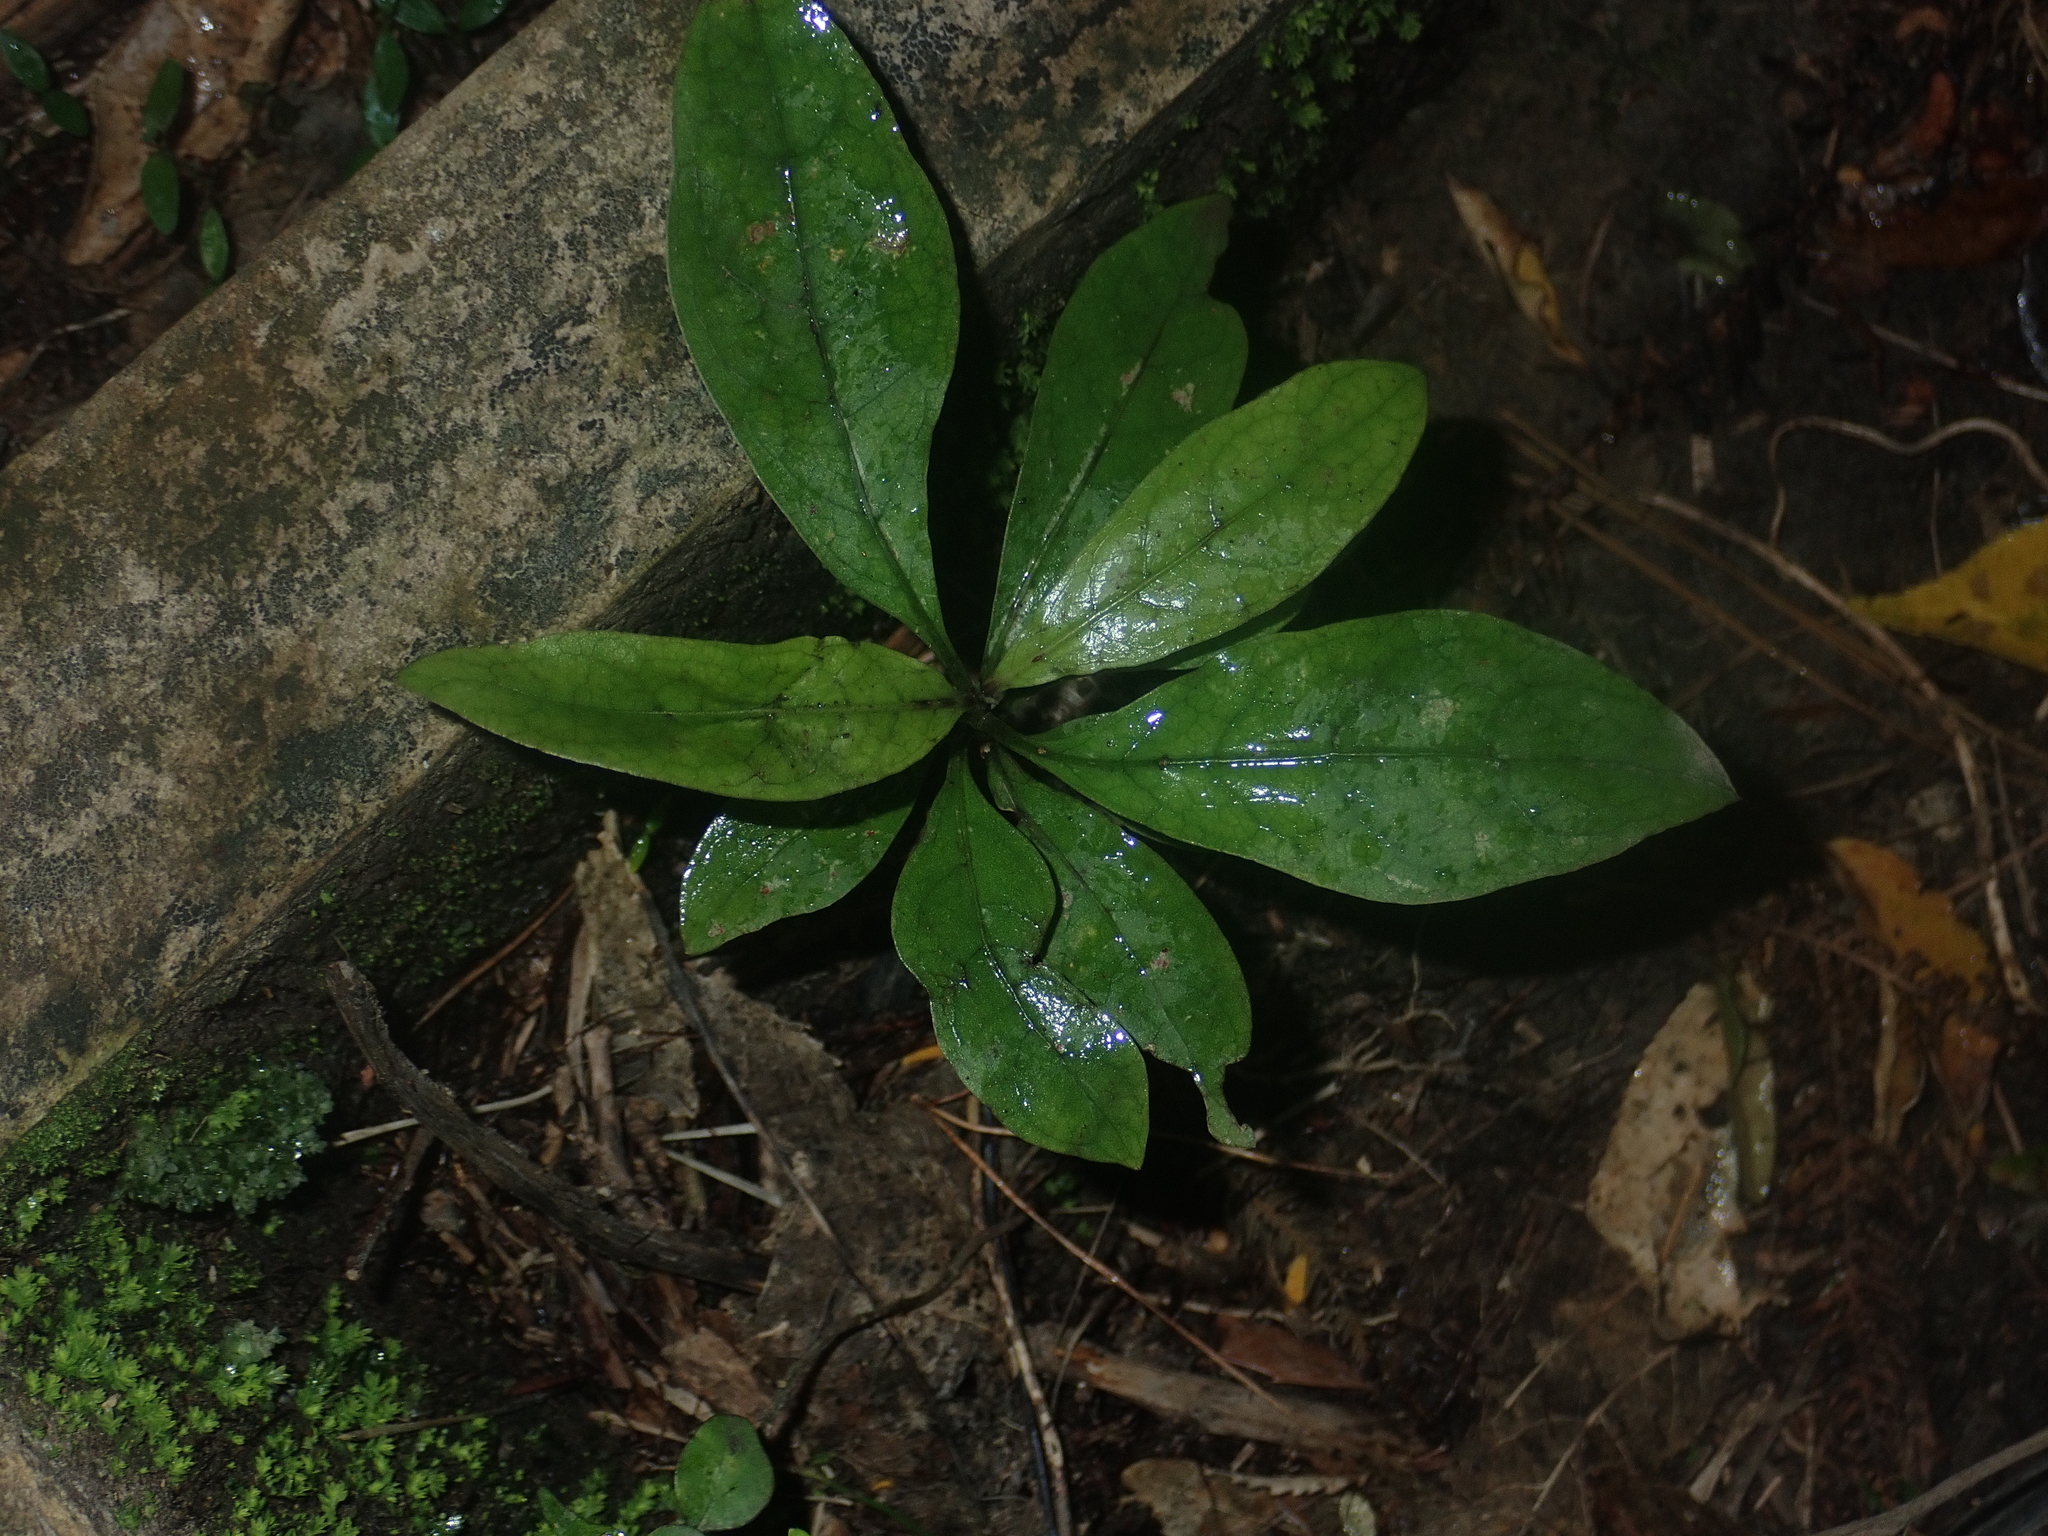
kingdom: Plantae
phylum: Tracheophyta
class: Magnoliopsida
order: Gentianales
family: Rubiaceae
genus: Coprosma
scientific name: Coprosma autumnalis
